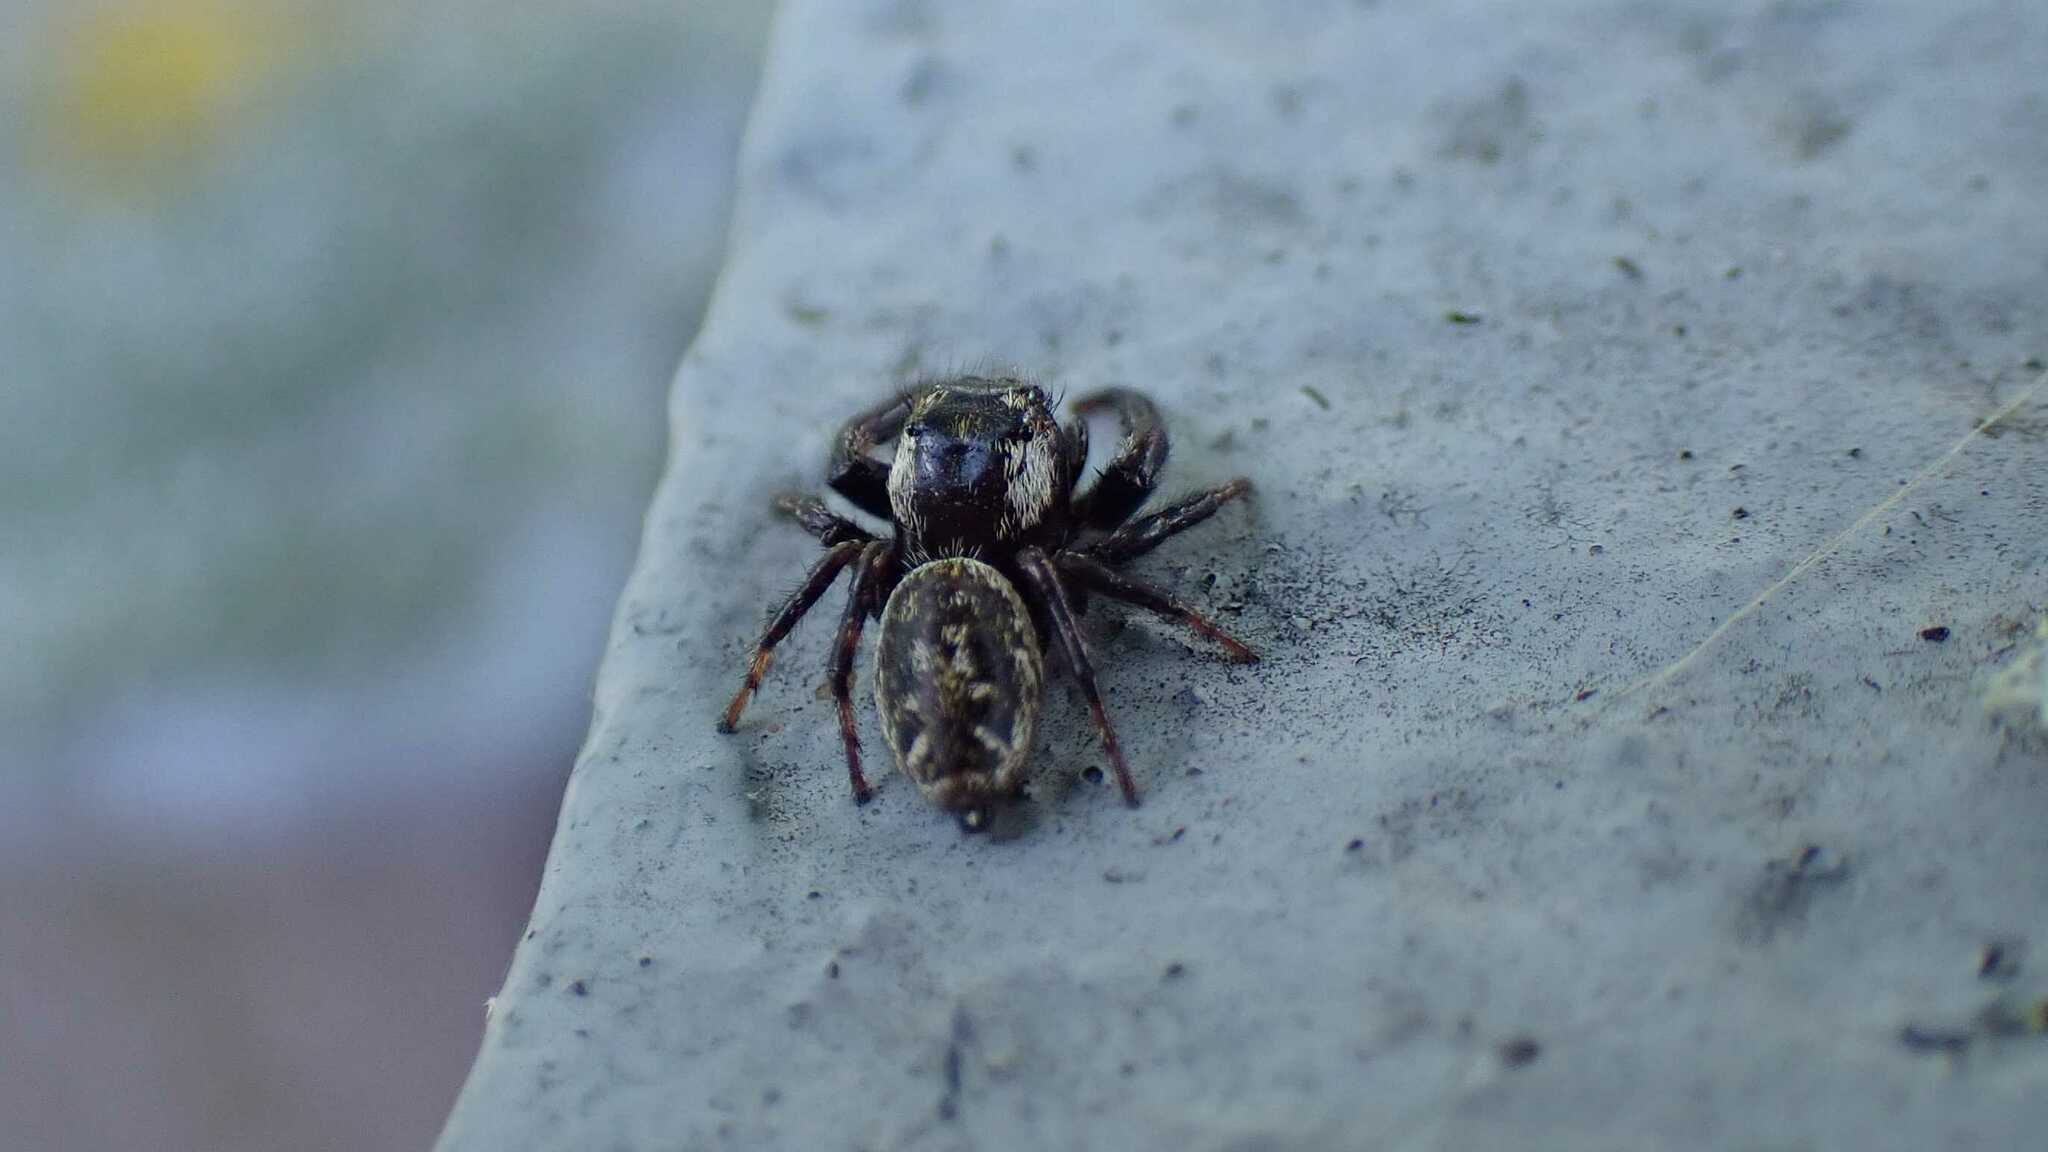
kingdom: Animalia
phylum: Arthropoda
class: Arachnida
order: Araneae
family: Salticidae
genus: Macaroeris
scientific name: Macaroeris nidicolens
